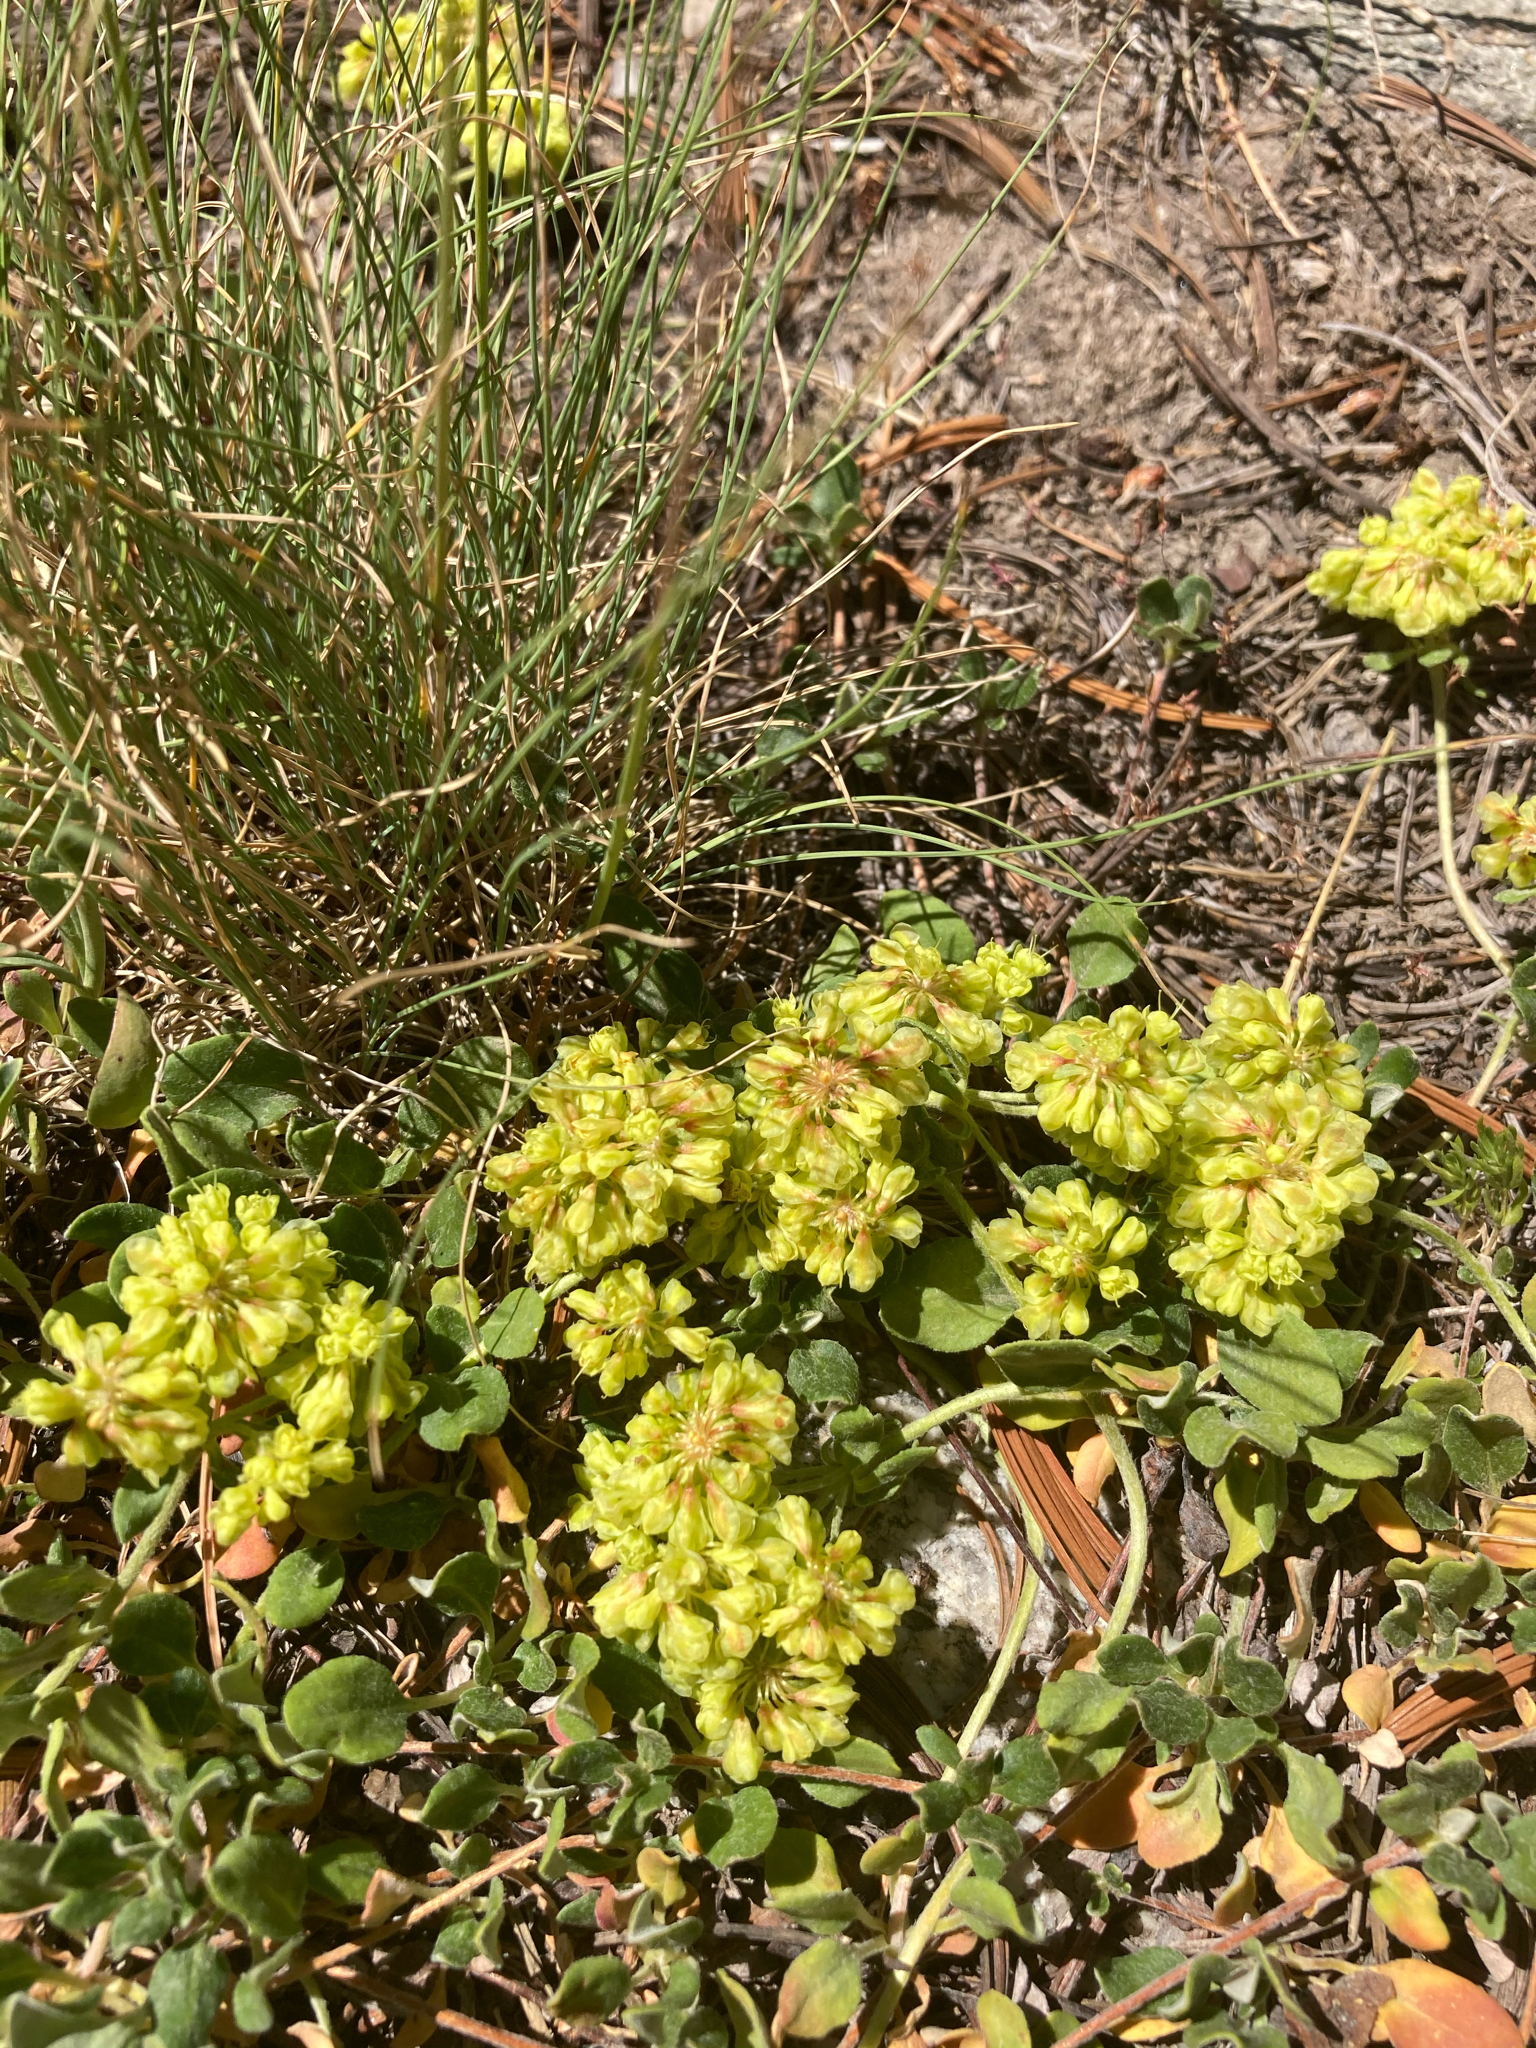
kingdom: Plantae
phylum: Tracheophyta
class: Magnoliopsida
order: Caryophyllales
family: Polygonaceae
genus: Eriogonum
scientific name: Eriogonum umbellatum
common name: Sulfur-buckwheat
